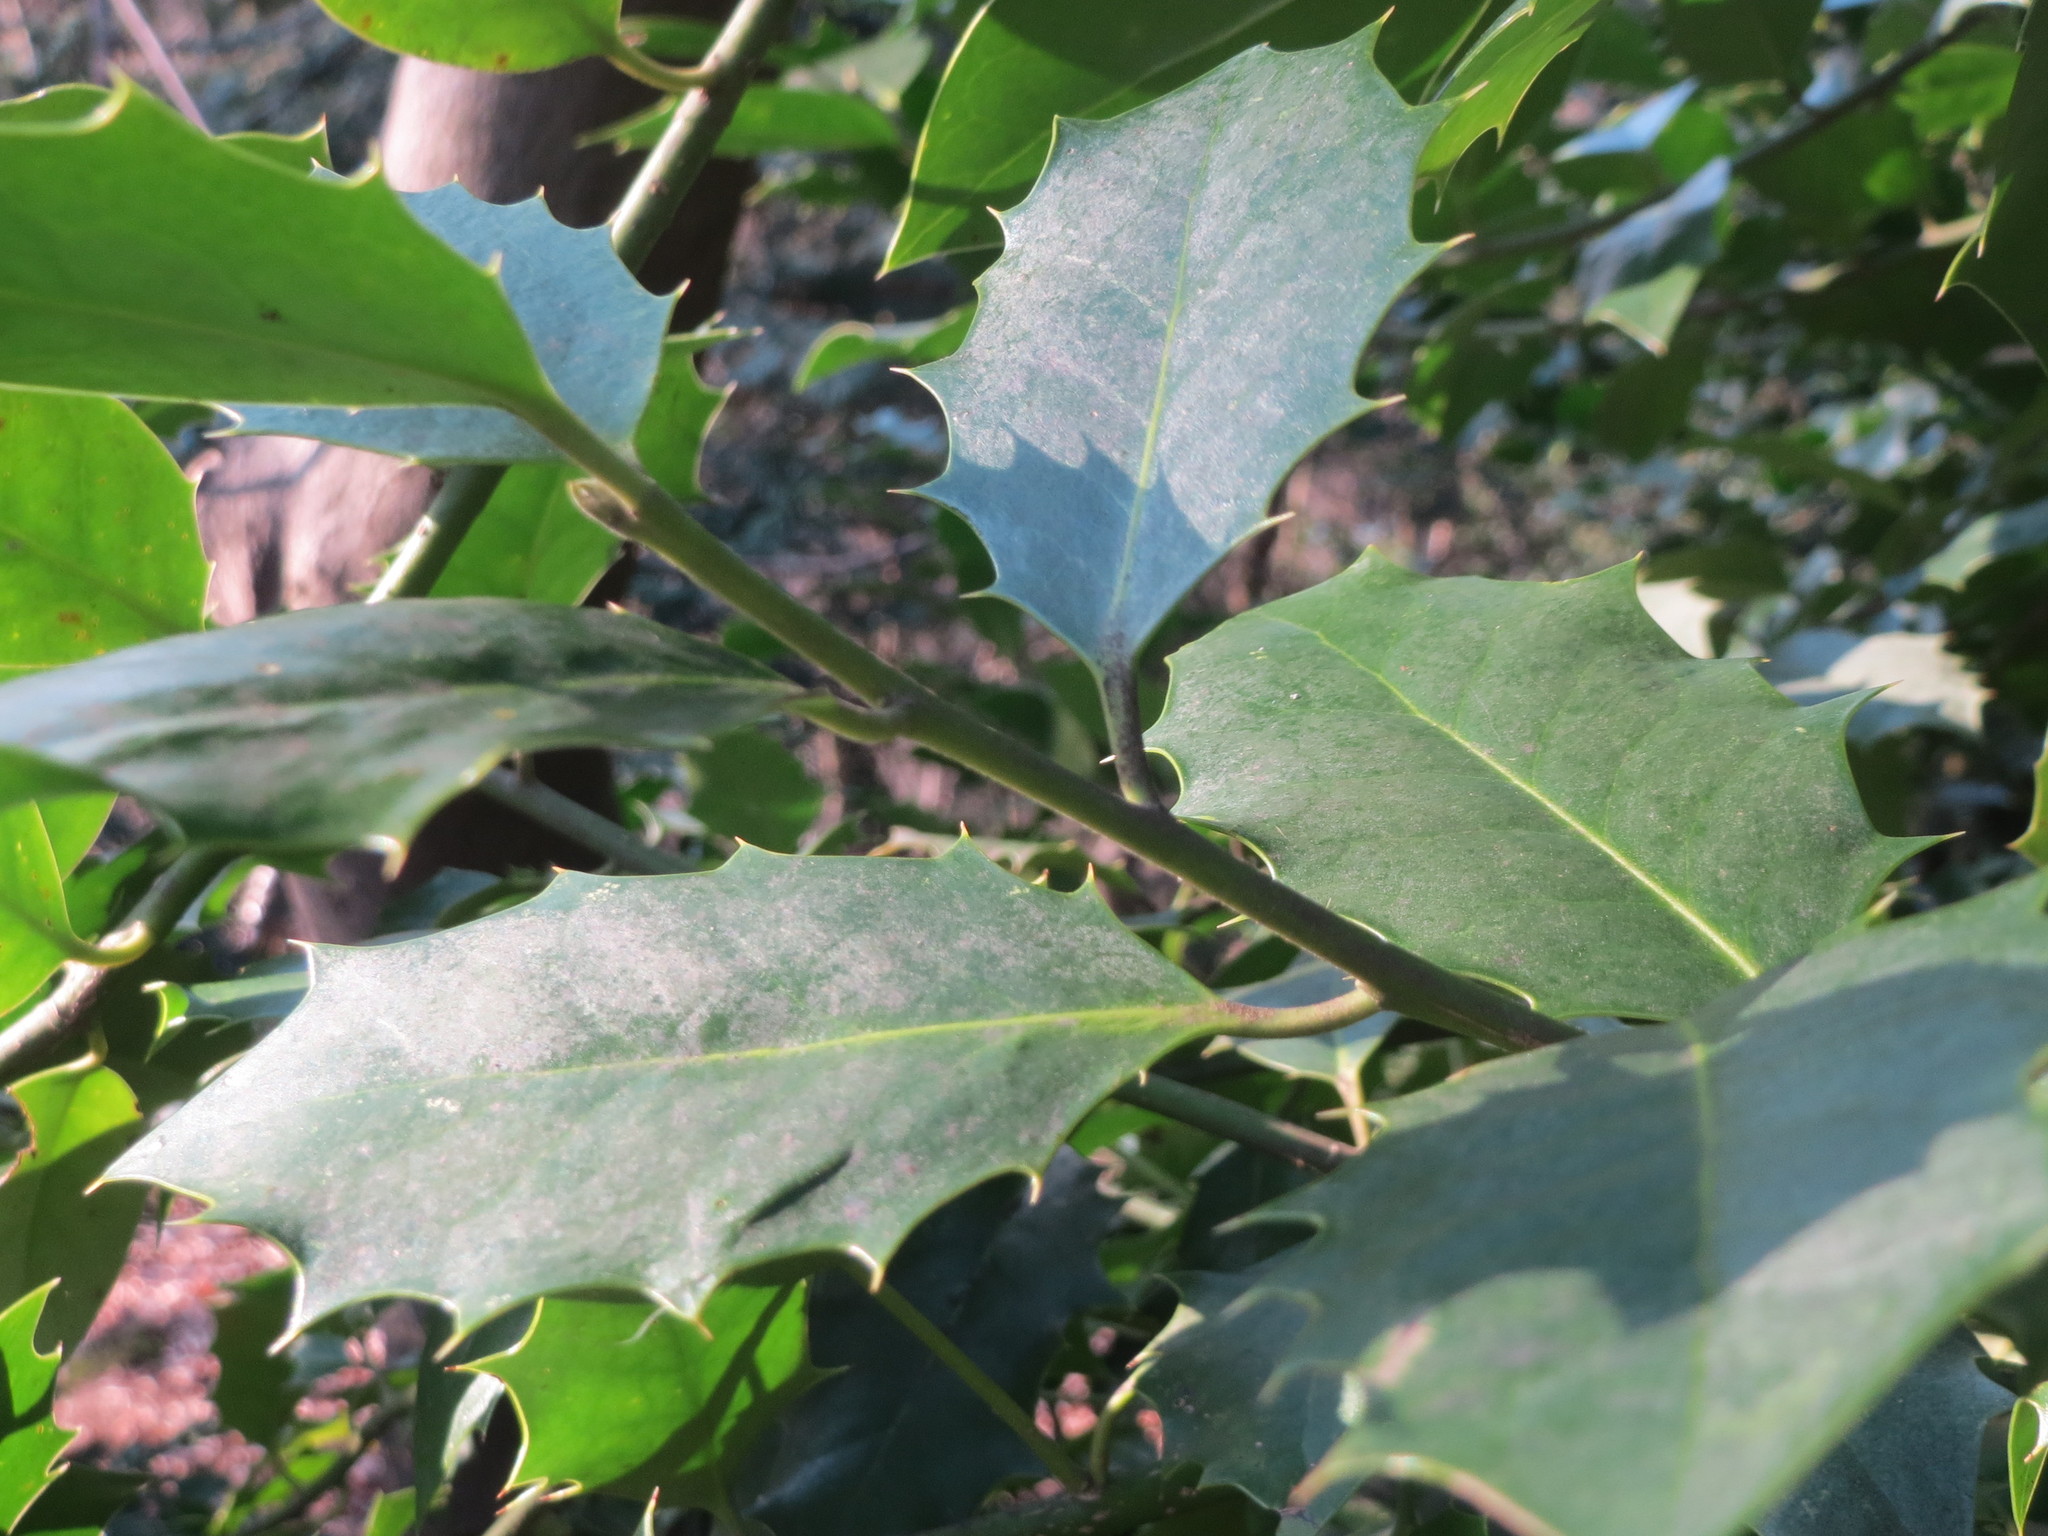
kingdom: Plantae
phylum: Tracheophyta
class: Magnoliopsida
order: Aquifoliales
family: Aquifoliaceae
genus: Ilex
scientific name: Ilex aquifolium
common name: English holly
